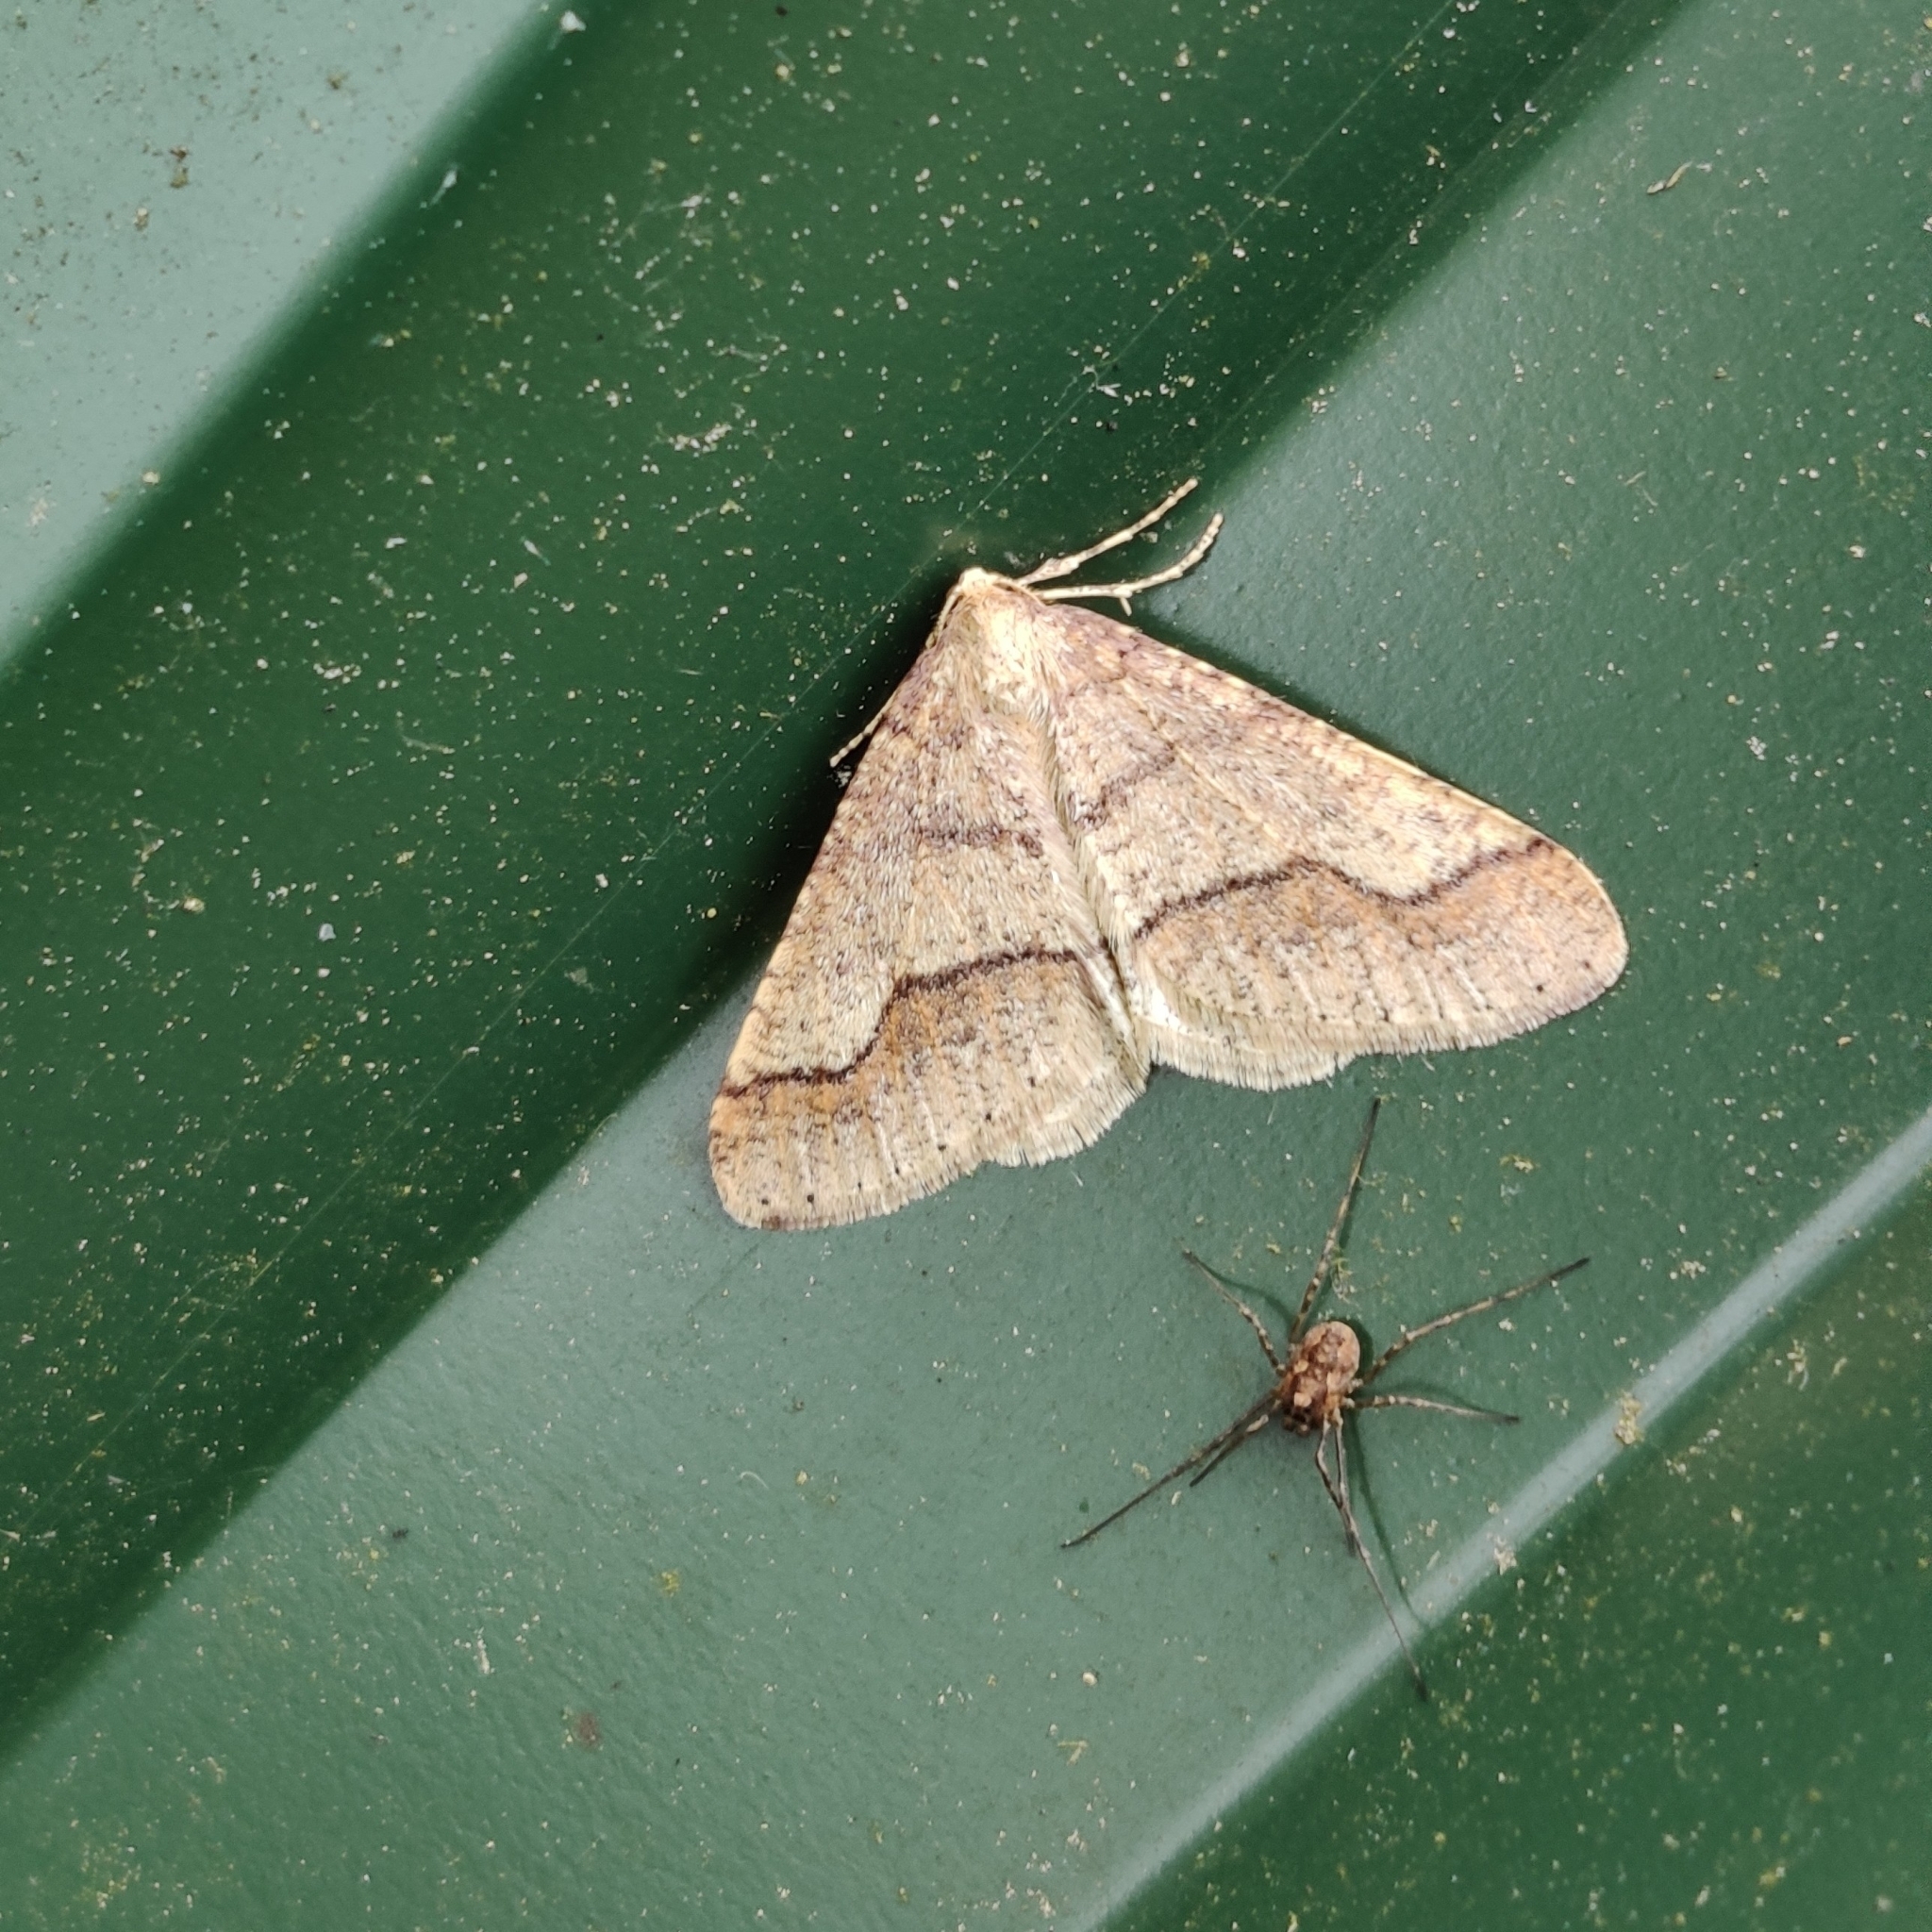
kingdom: Animalia
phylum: Arthropoda
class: Insecta
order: Lepidoptera
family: Geometridae
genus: Agriopis
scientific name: Agriopis marginaria
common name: Dotted border
